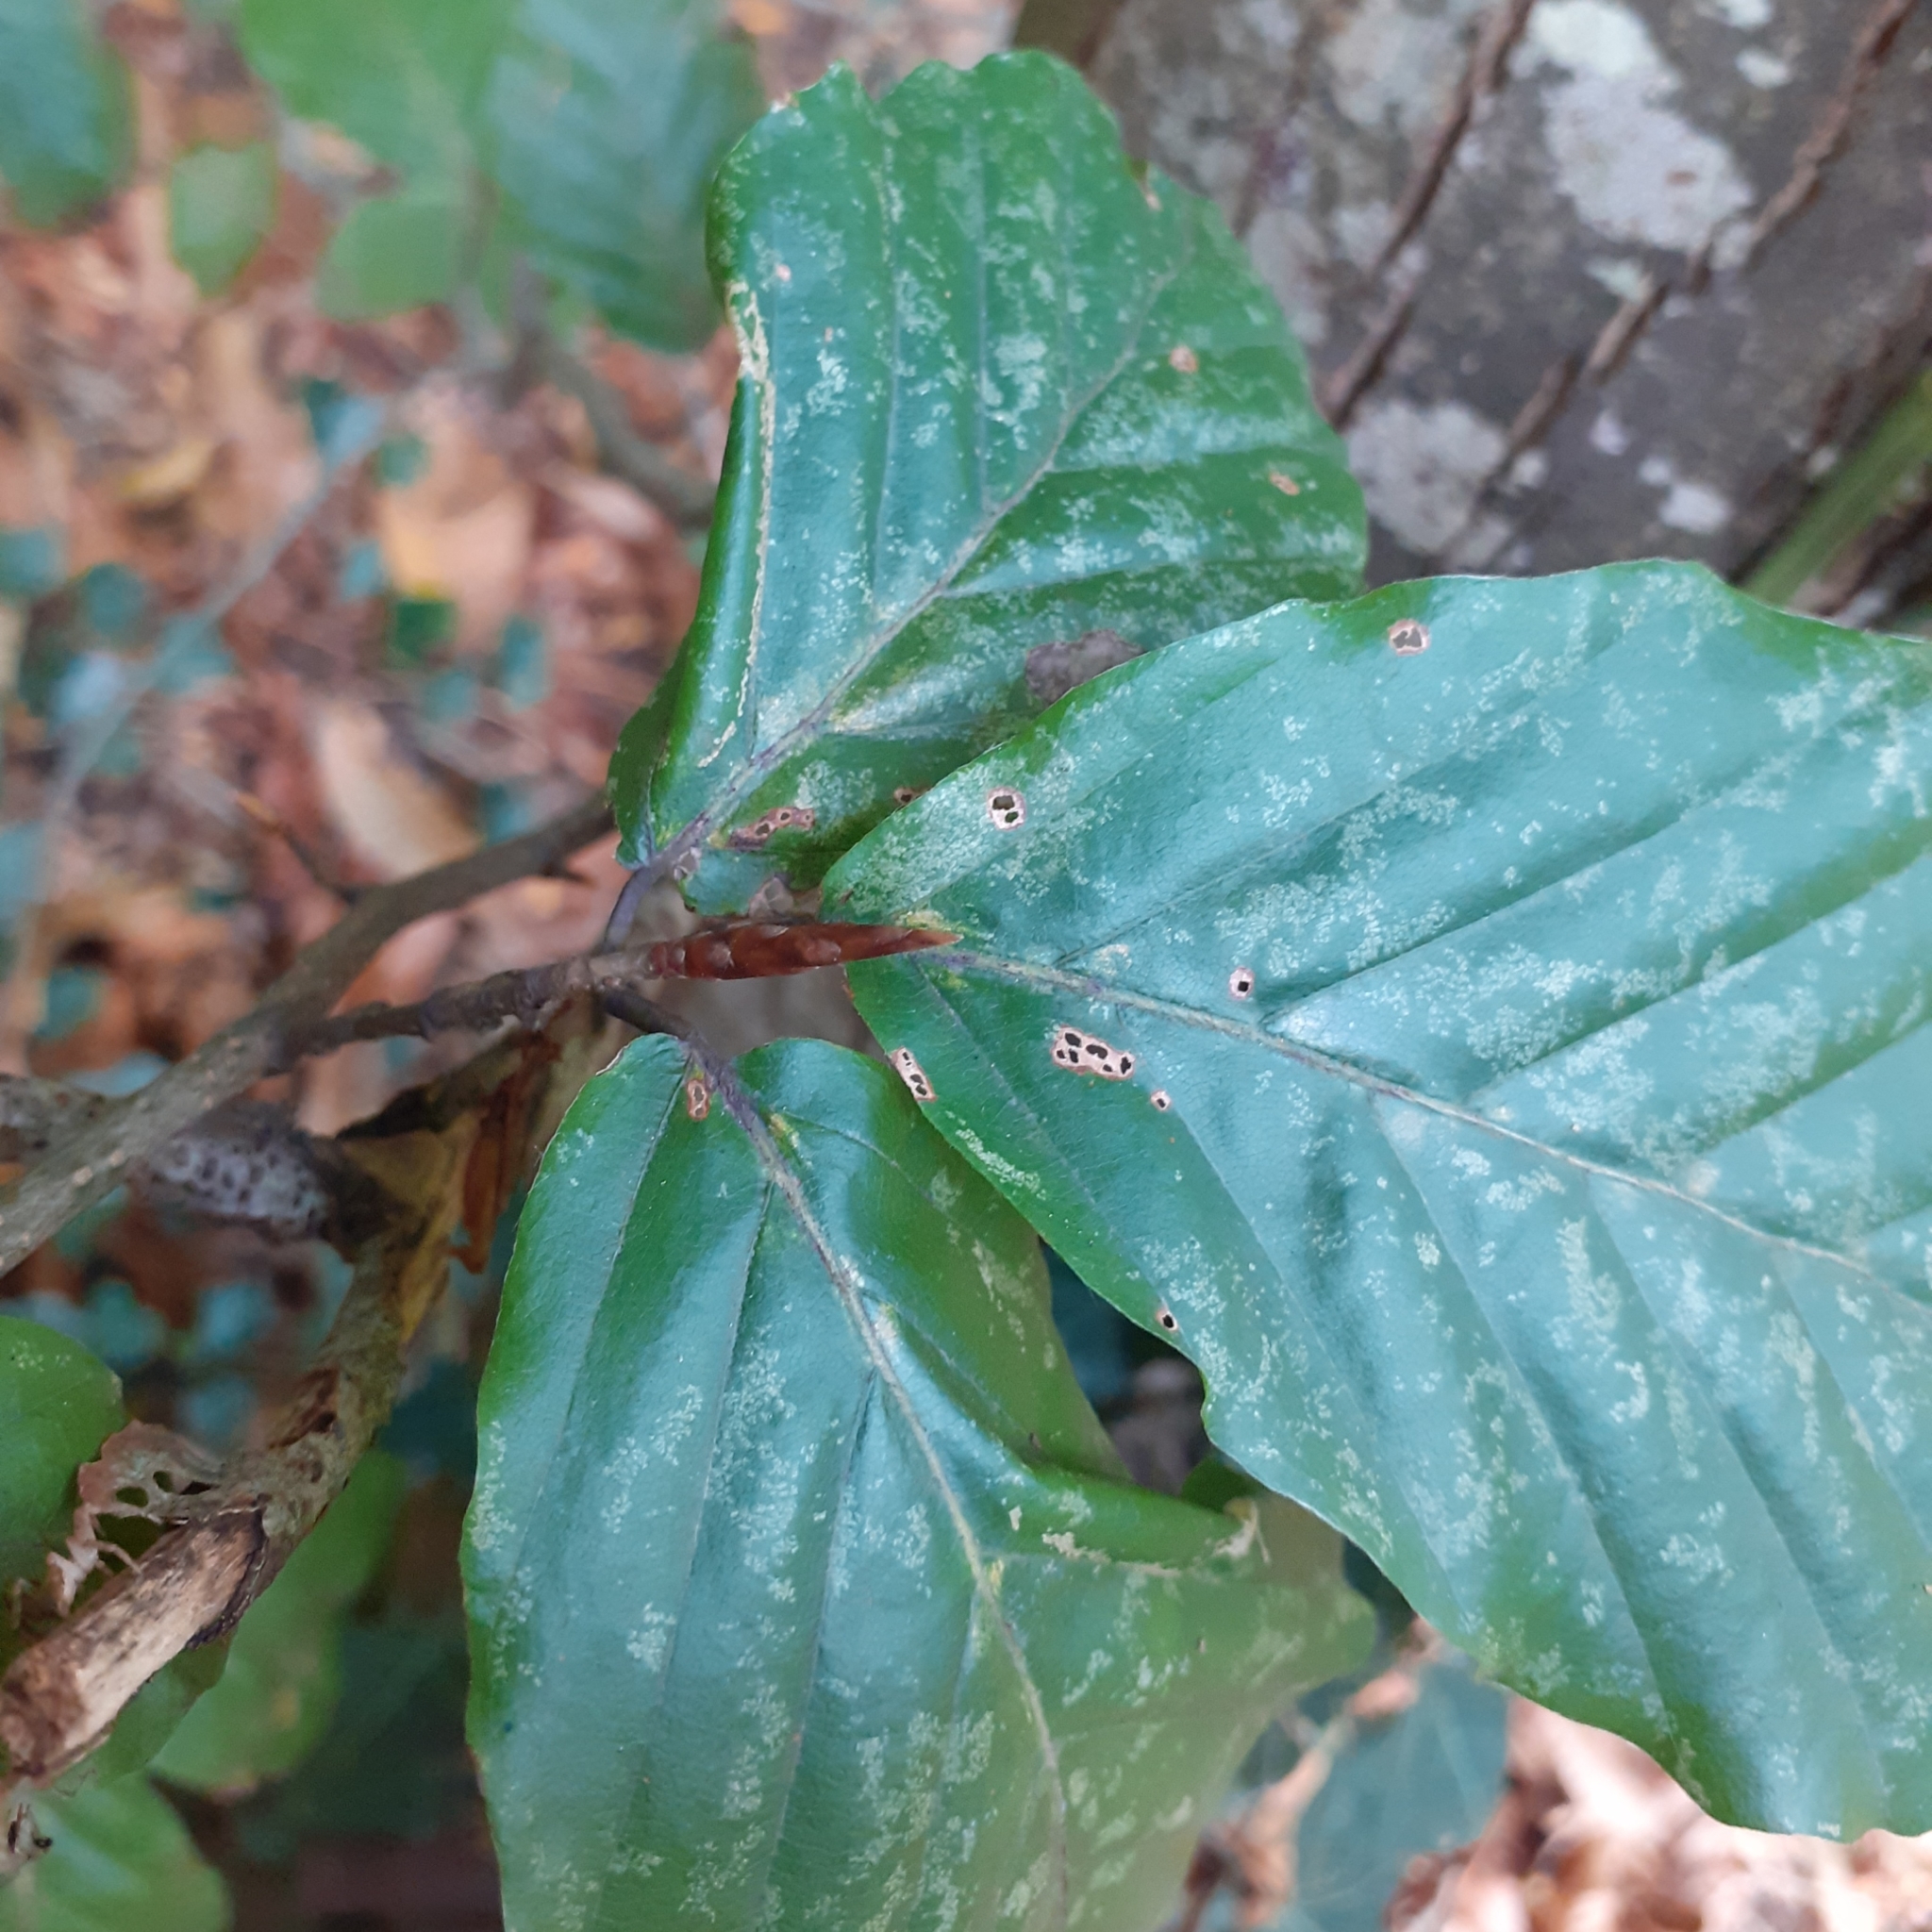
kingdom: Plantae
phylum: Tracheophyta
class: Magnoliopsida
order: Fagales
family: Fagaceae
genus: Fagus
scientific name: Fagus sylvatica
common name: Beech
